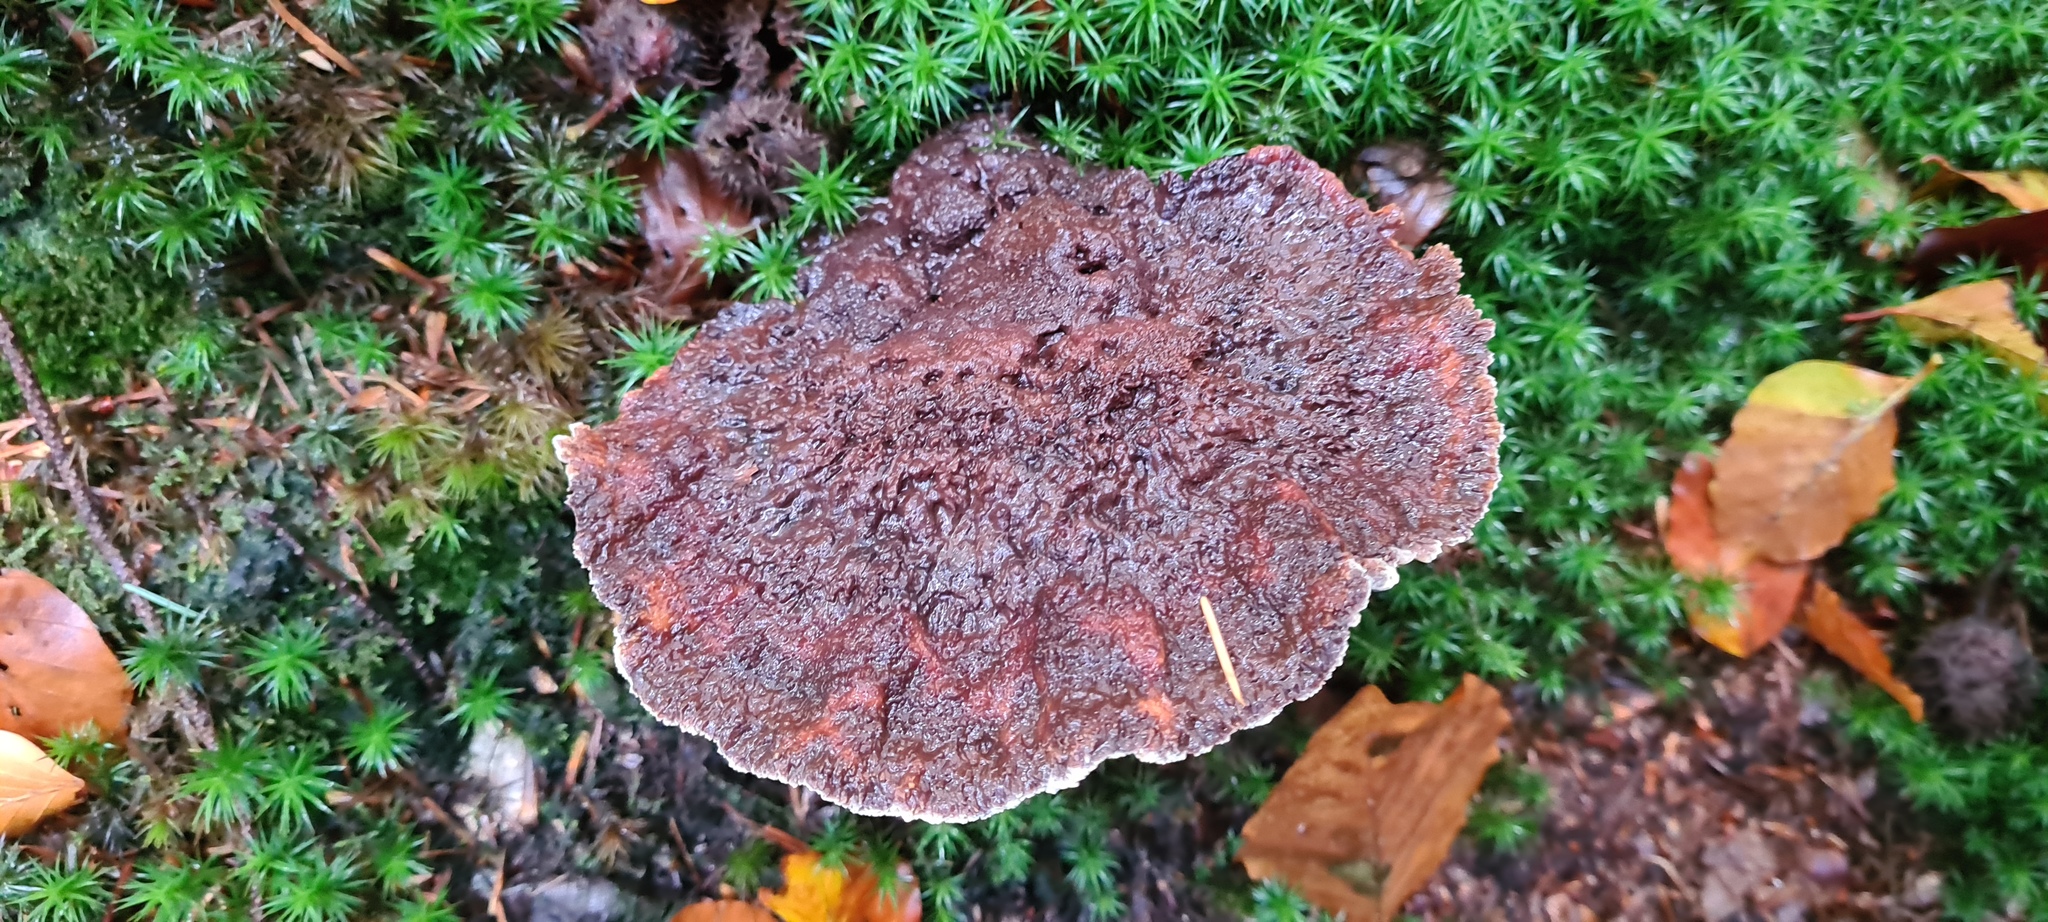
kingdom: Fungi
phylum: Basidiomycota
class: Agaricomycetes
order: Polyporales
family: Laetiporaceae
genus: Phaeolus
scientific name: Phaeolus schweinitzii
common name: Dyer's mazegill
